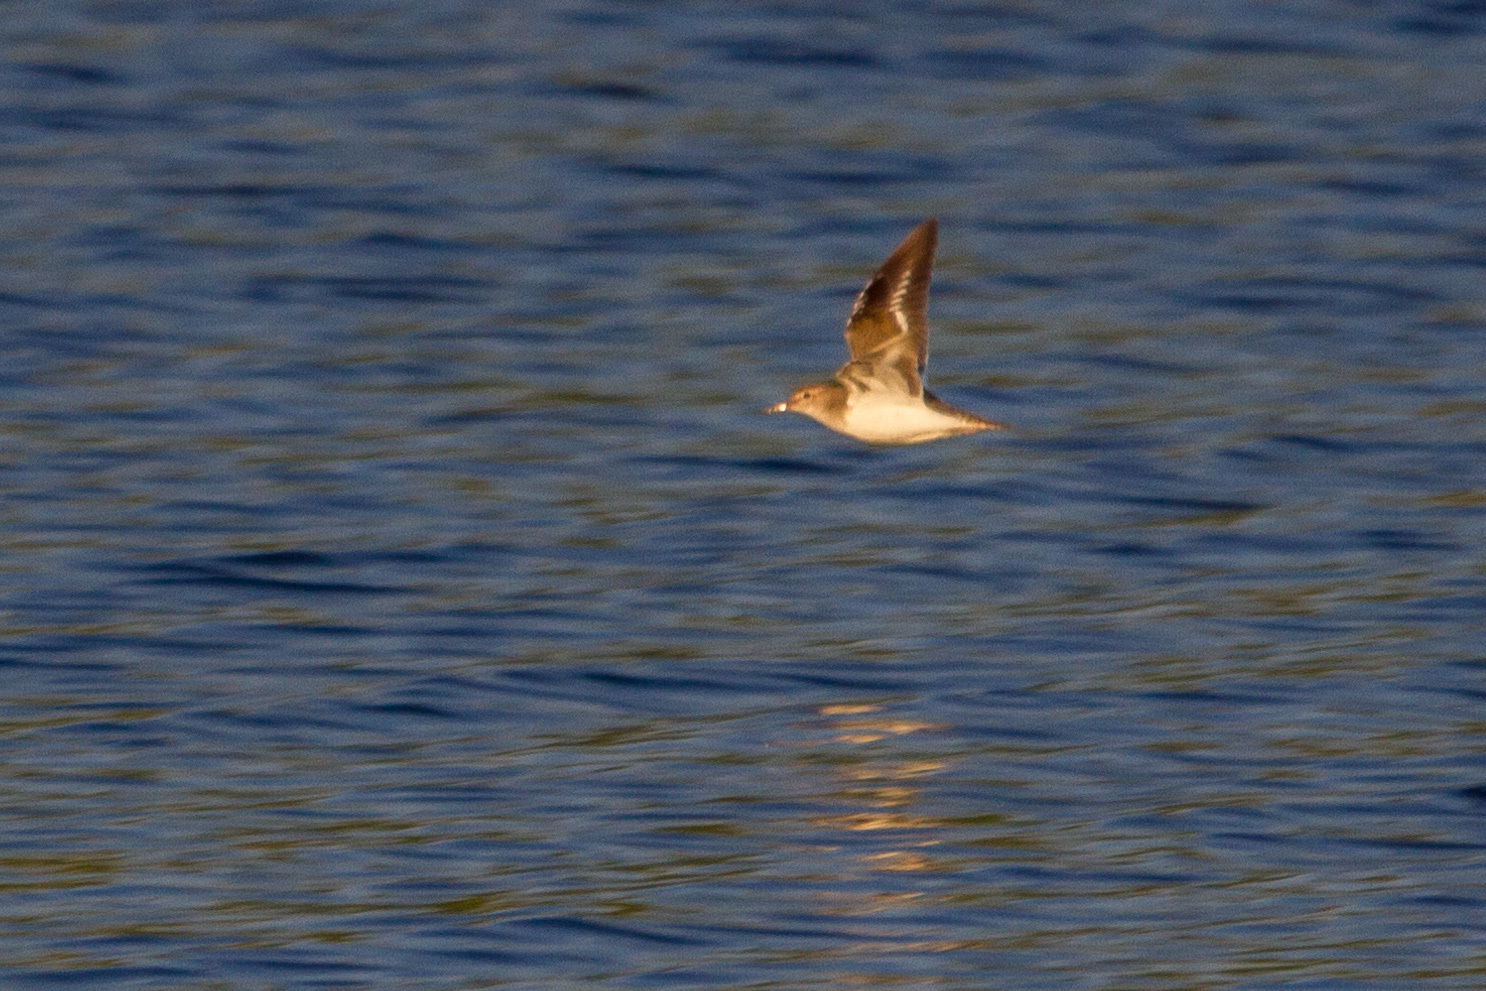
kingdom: Animalia
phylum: Chordata
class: Aves
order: Charadriiformes
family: Scolopacidae
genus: Actitis
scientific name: Actitis hypoleucos
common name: Common sandpiper
